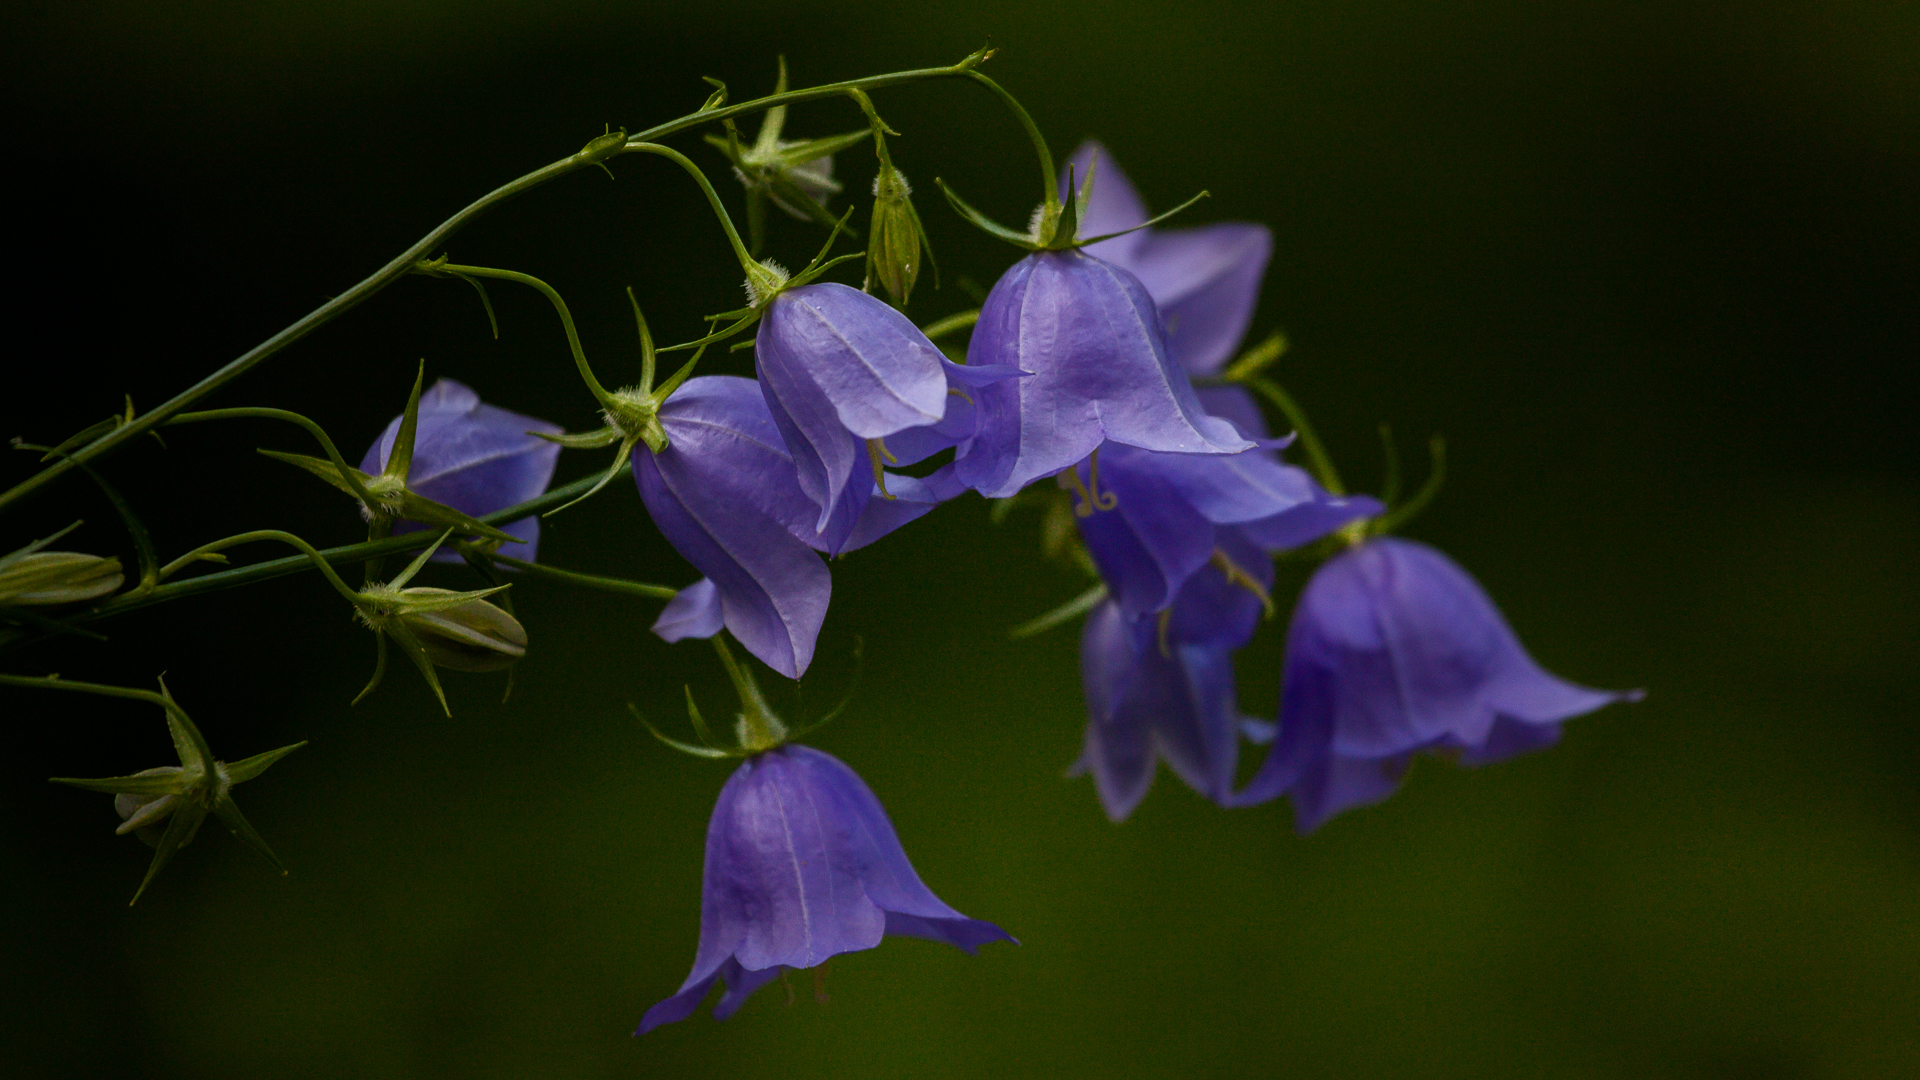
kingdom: Plantae
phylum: Tracheophyta
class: Magnoliopsida
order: Asterales
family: Campanulaceae
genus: Campanula
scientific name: Campanula persicifolia
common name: Peach-leaved bellflower
